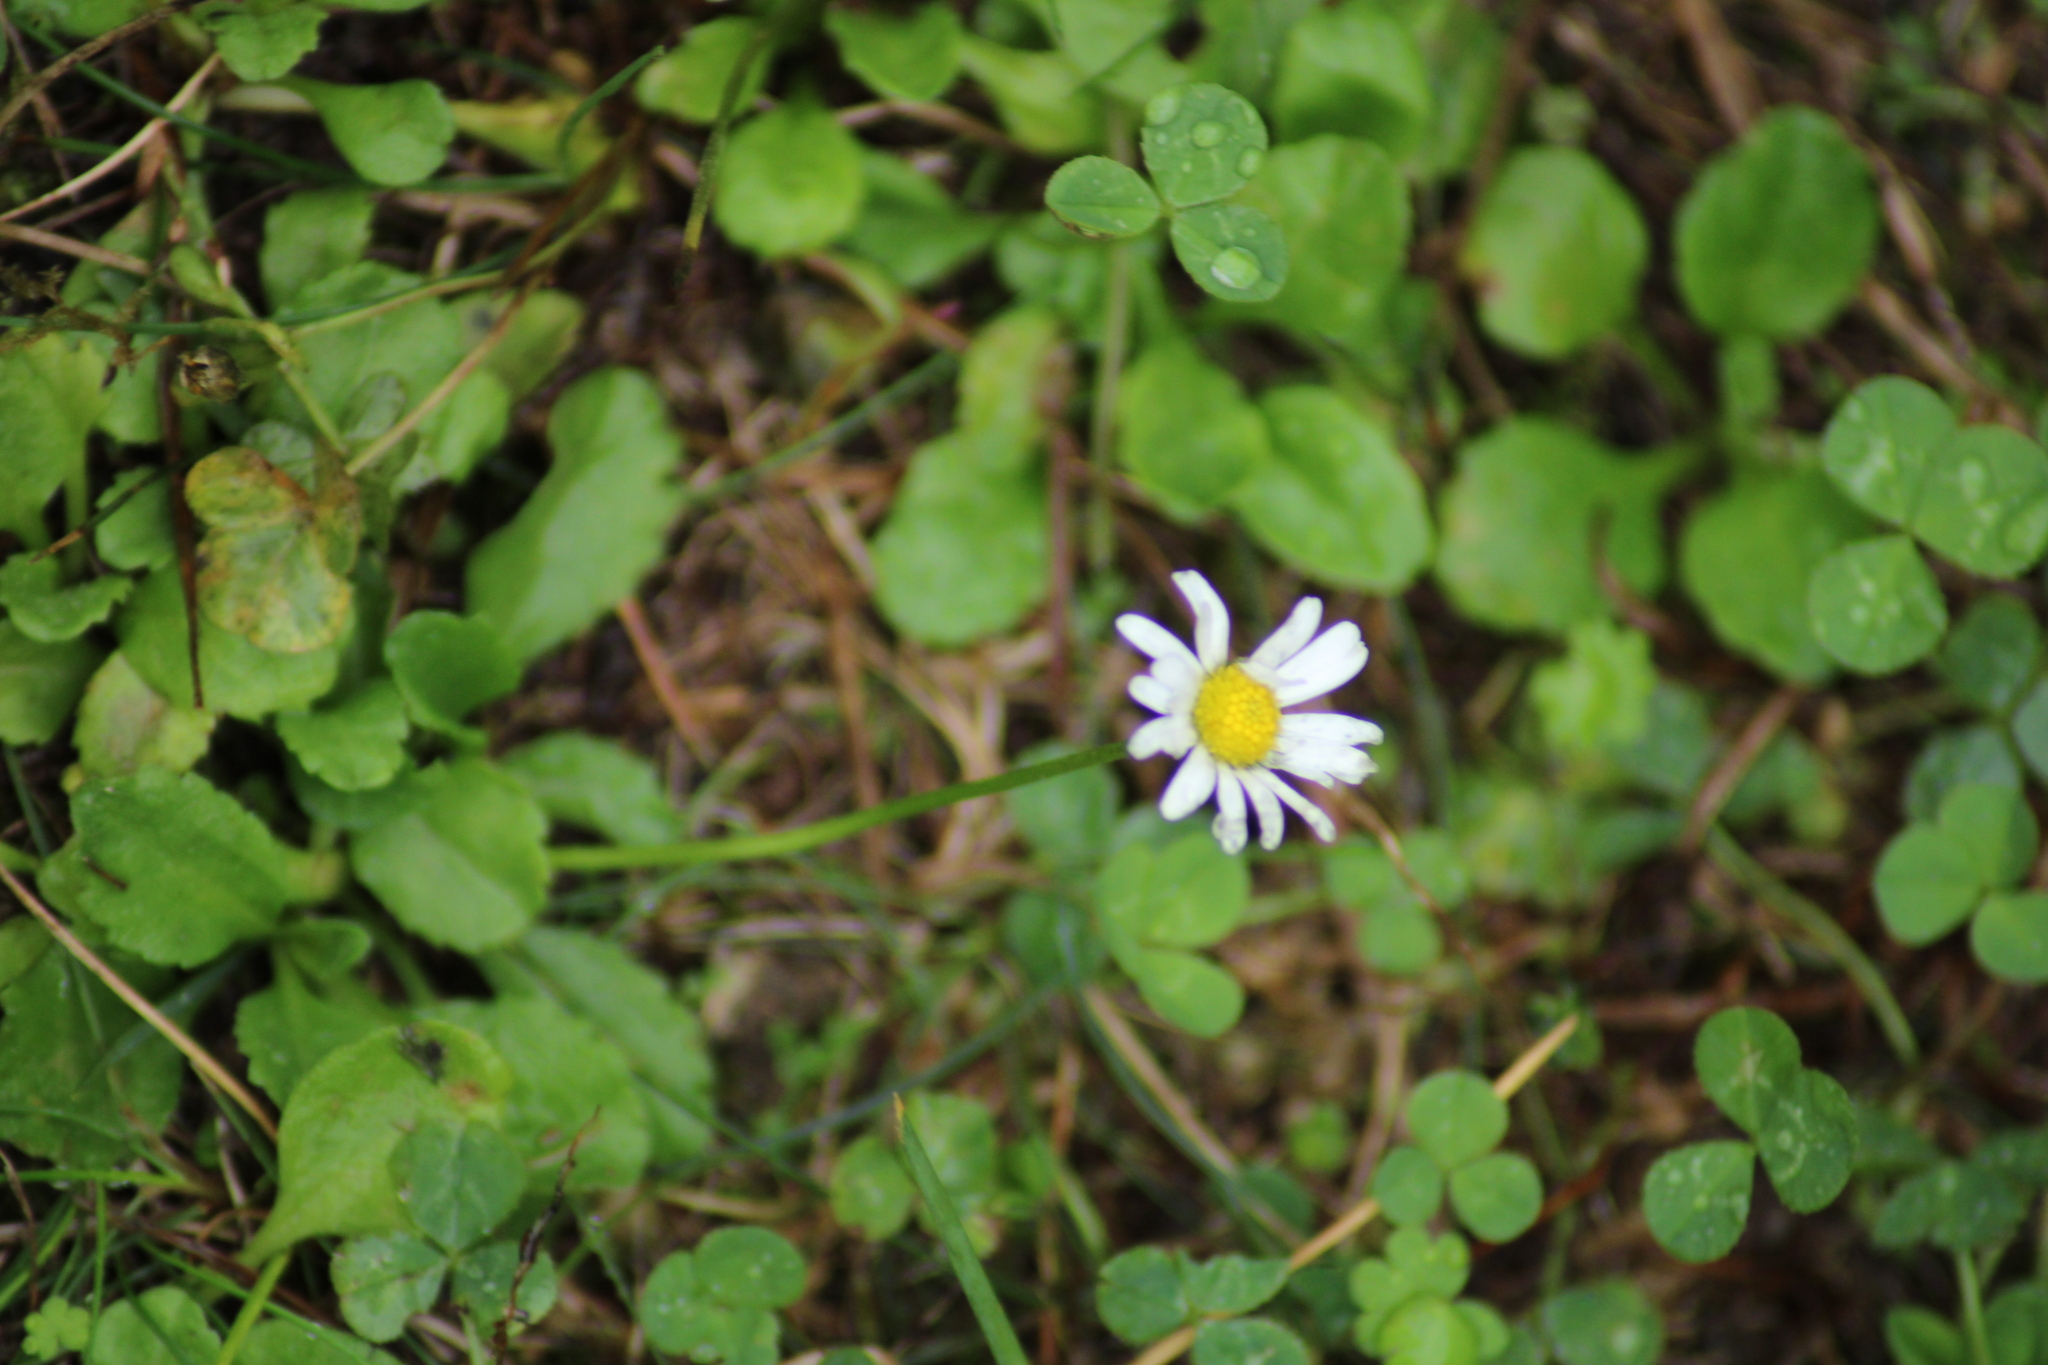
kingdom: Plantae
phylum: Tracheophyta
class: Magnoliopsida
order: Asterales
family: Asteraceae
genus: Bellis
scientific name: Bellis perennis
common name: Lawndaisy
